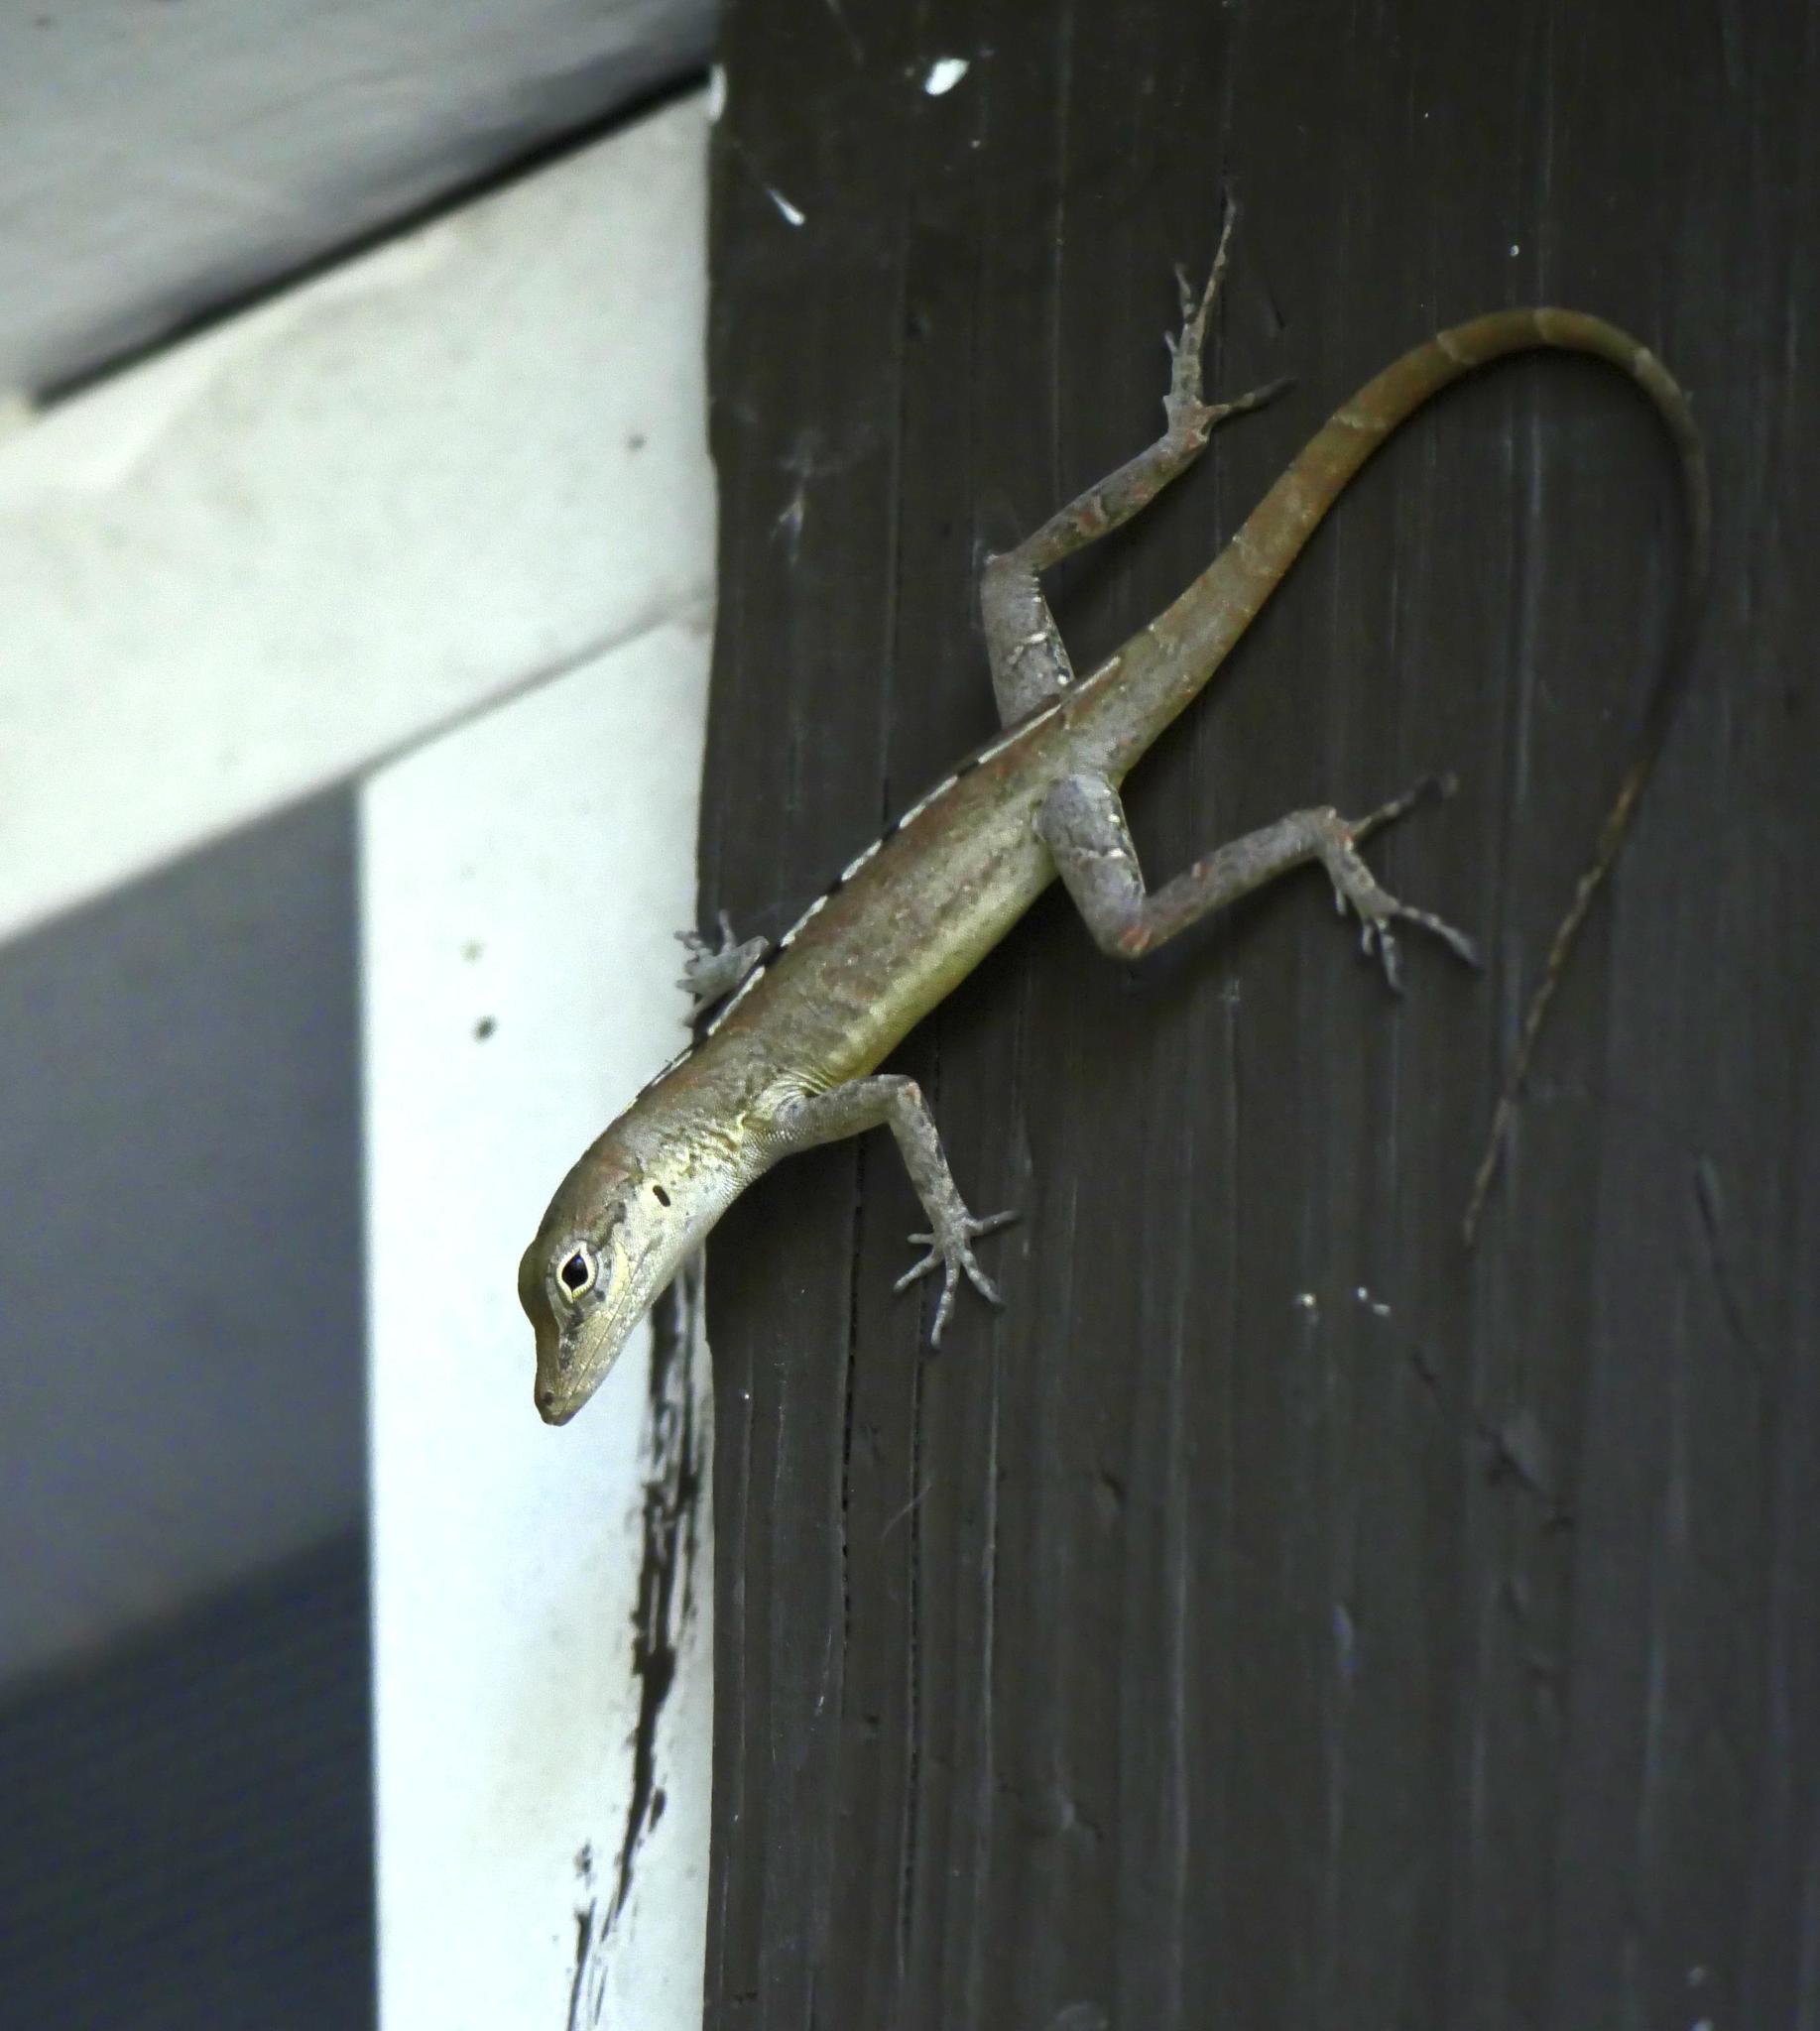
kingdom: Animalia
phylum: Chordata
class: Squamata
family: Dactyloidae
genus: Anolis
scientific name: Anolis scriptus
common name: Silver key anole
